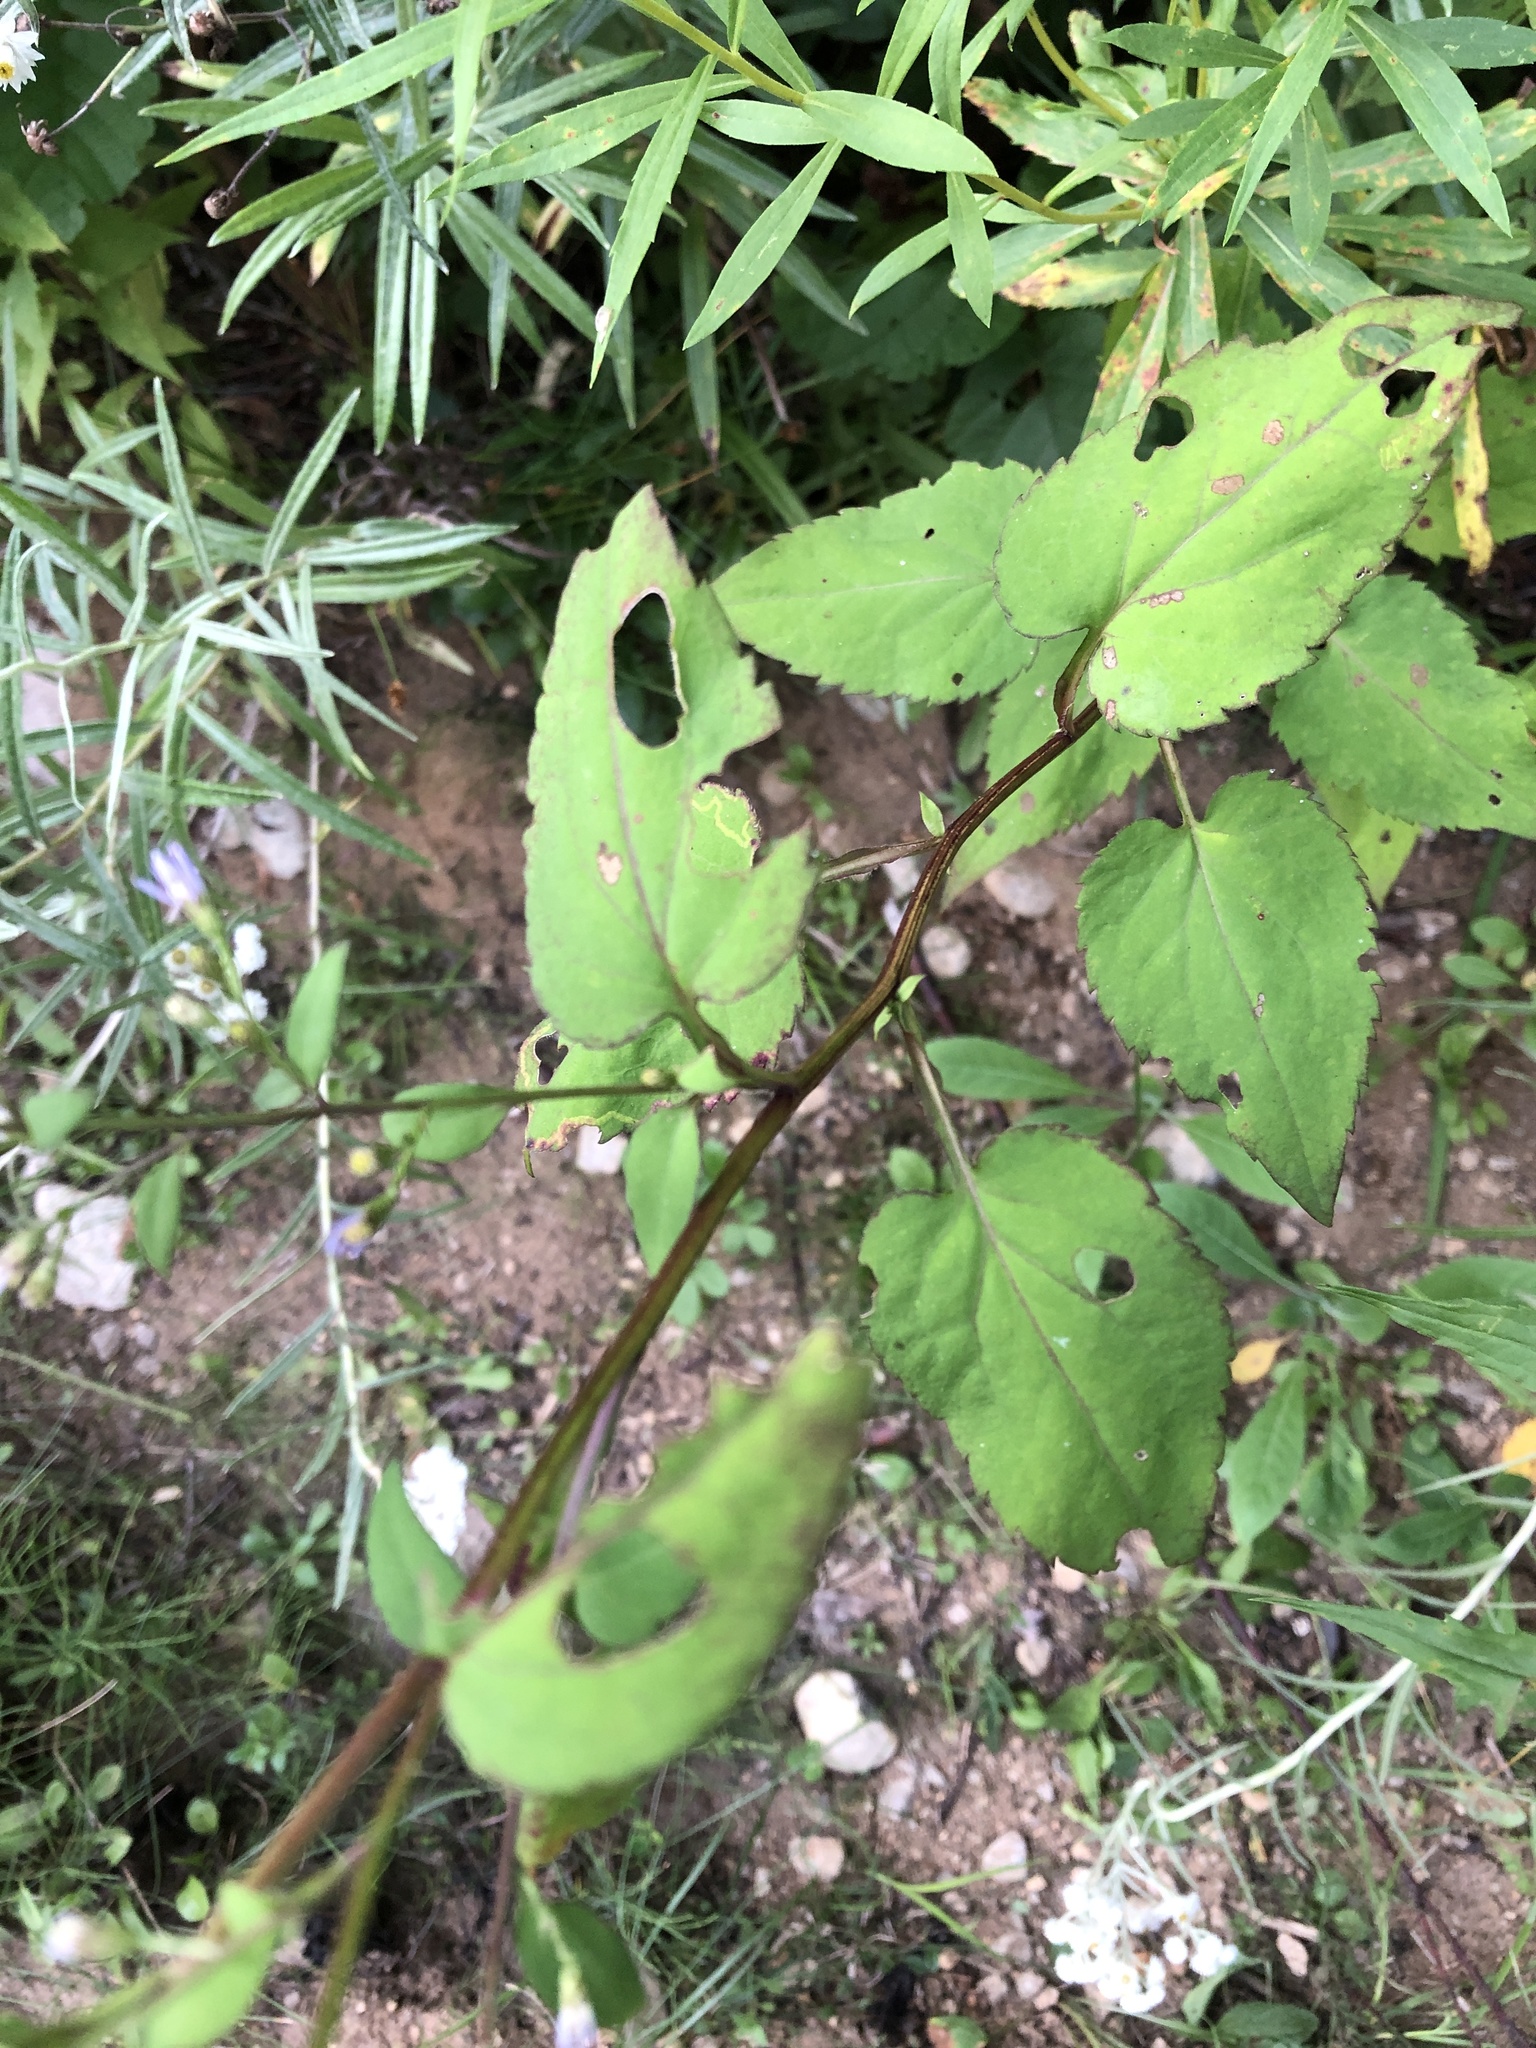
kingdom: Plantae
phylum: Tracheophyta
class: Magnoliopsida
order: Asterales
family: Asteraceae
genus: Symphyotrichum
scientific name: Symphyotrichum cordifolium
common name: Beeweed
